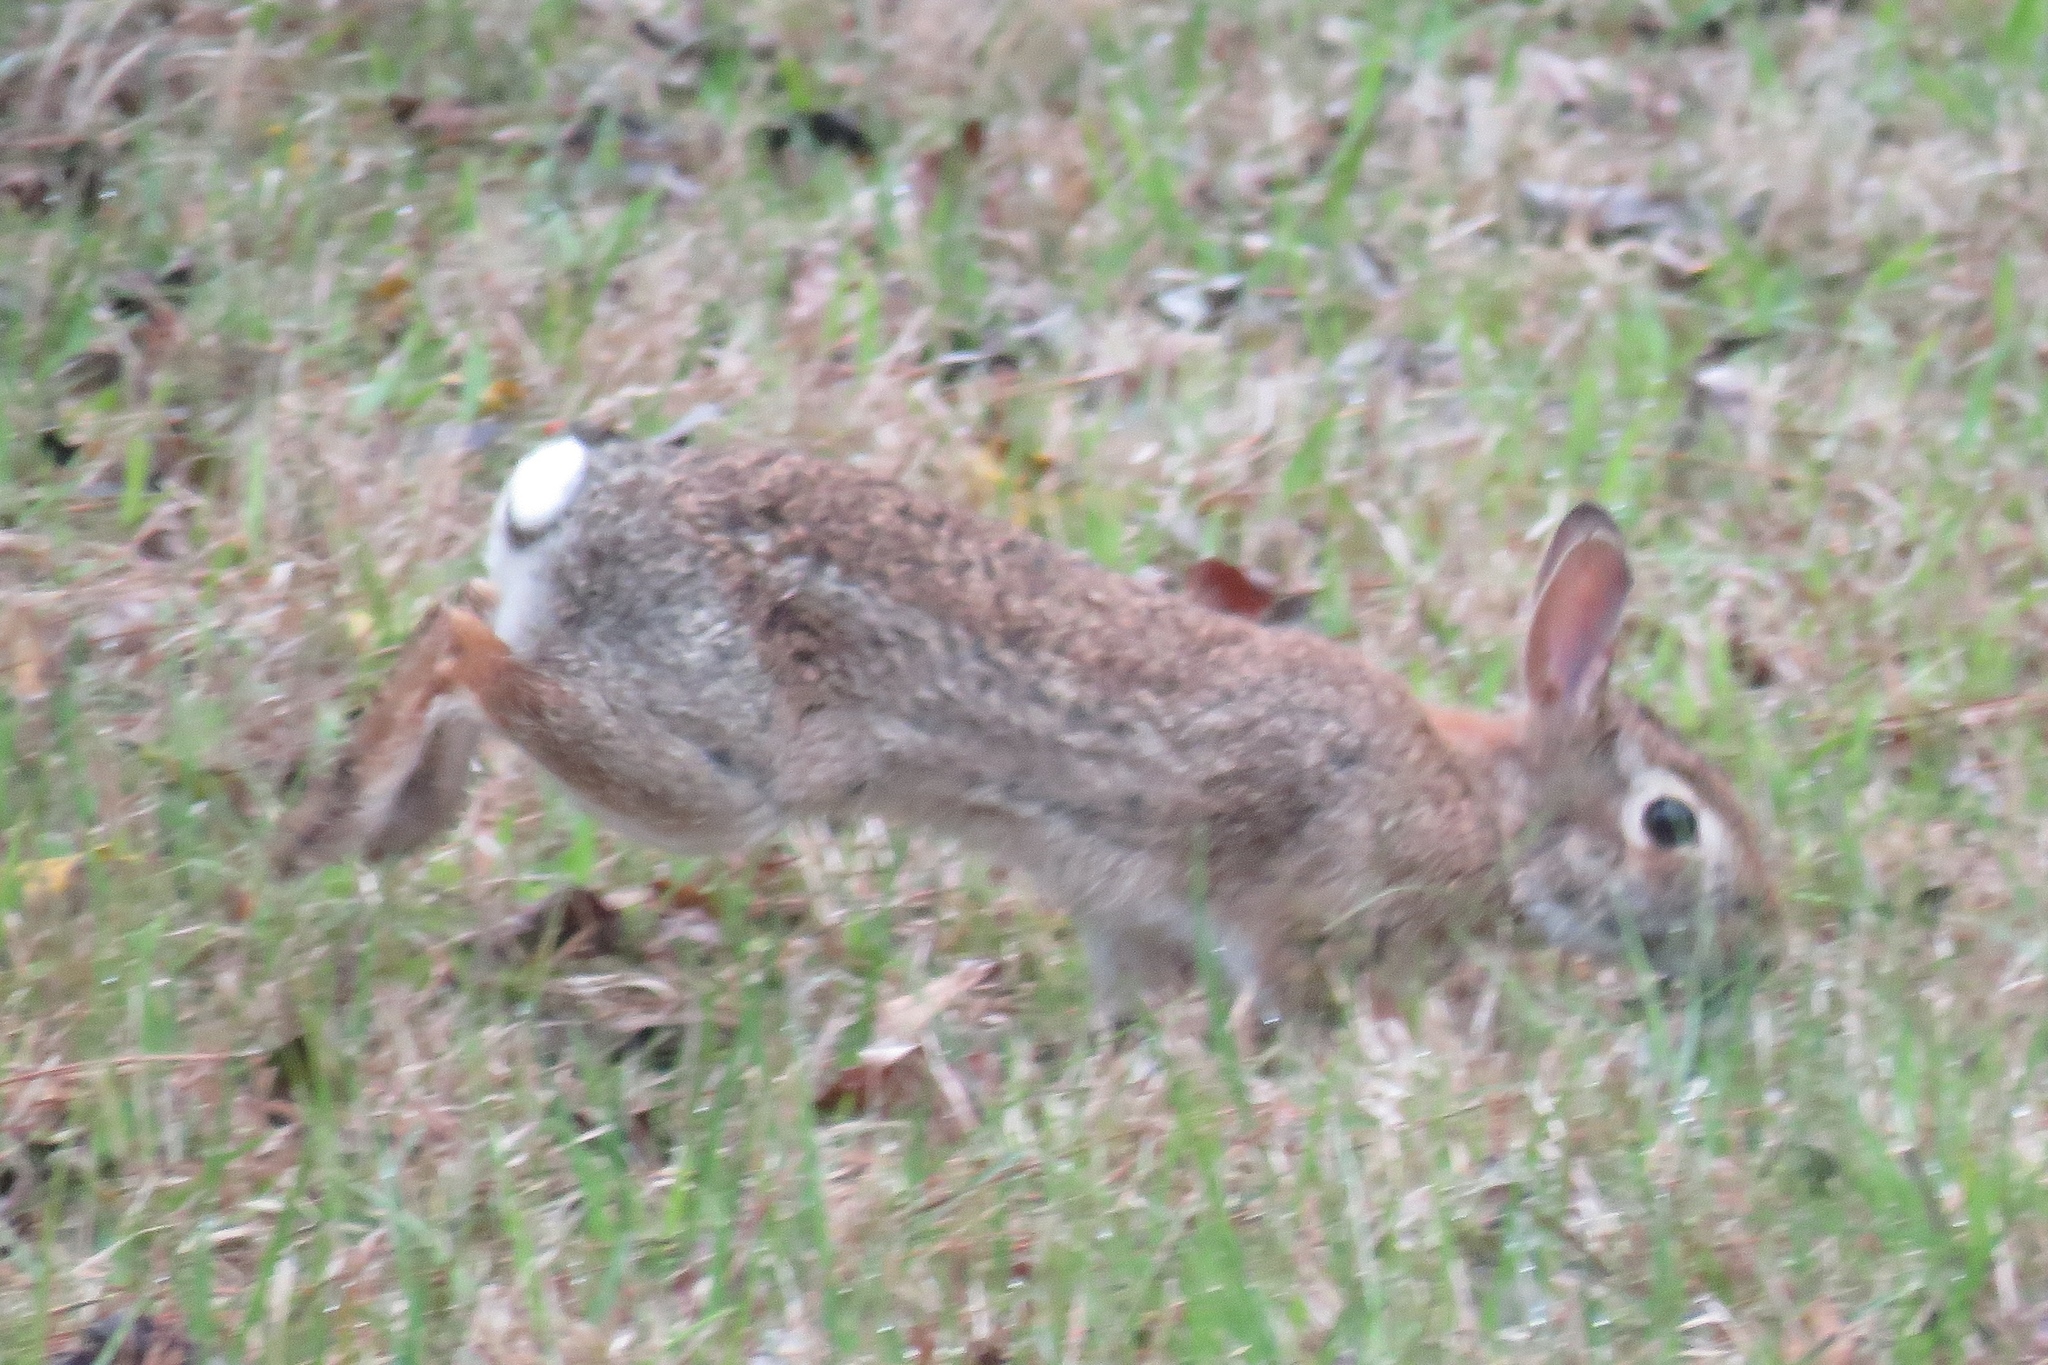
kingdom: Animalia
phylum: Chordata
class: Mammalia
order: Lagomorpha
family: Leporidae
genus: Sylvilagus
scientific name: Sylvilagus floridanus
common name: Eastern cottontail
